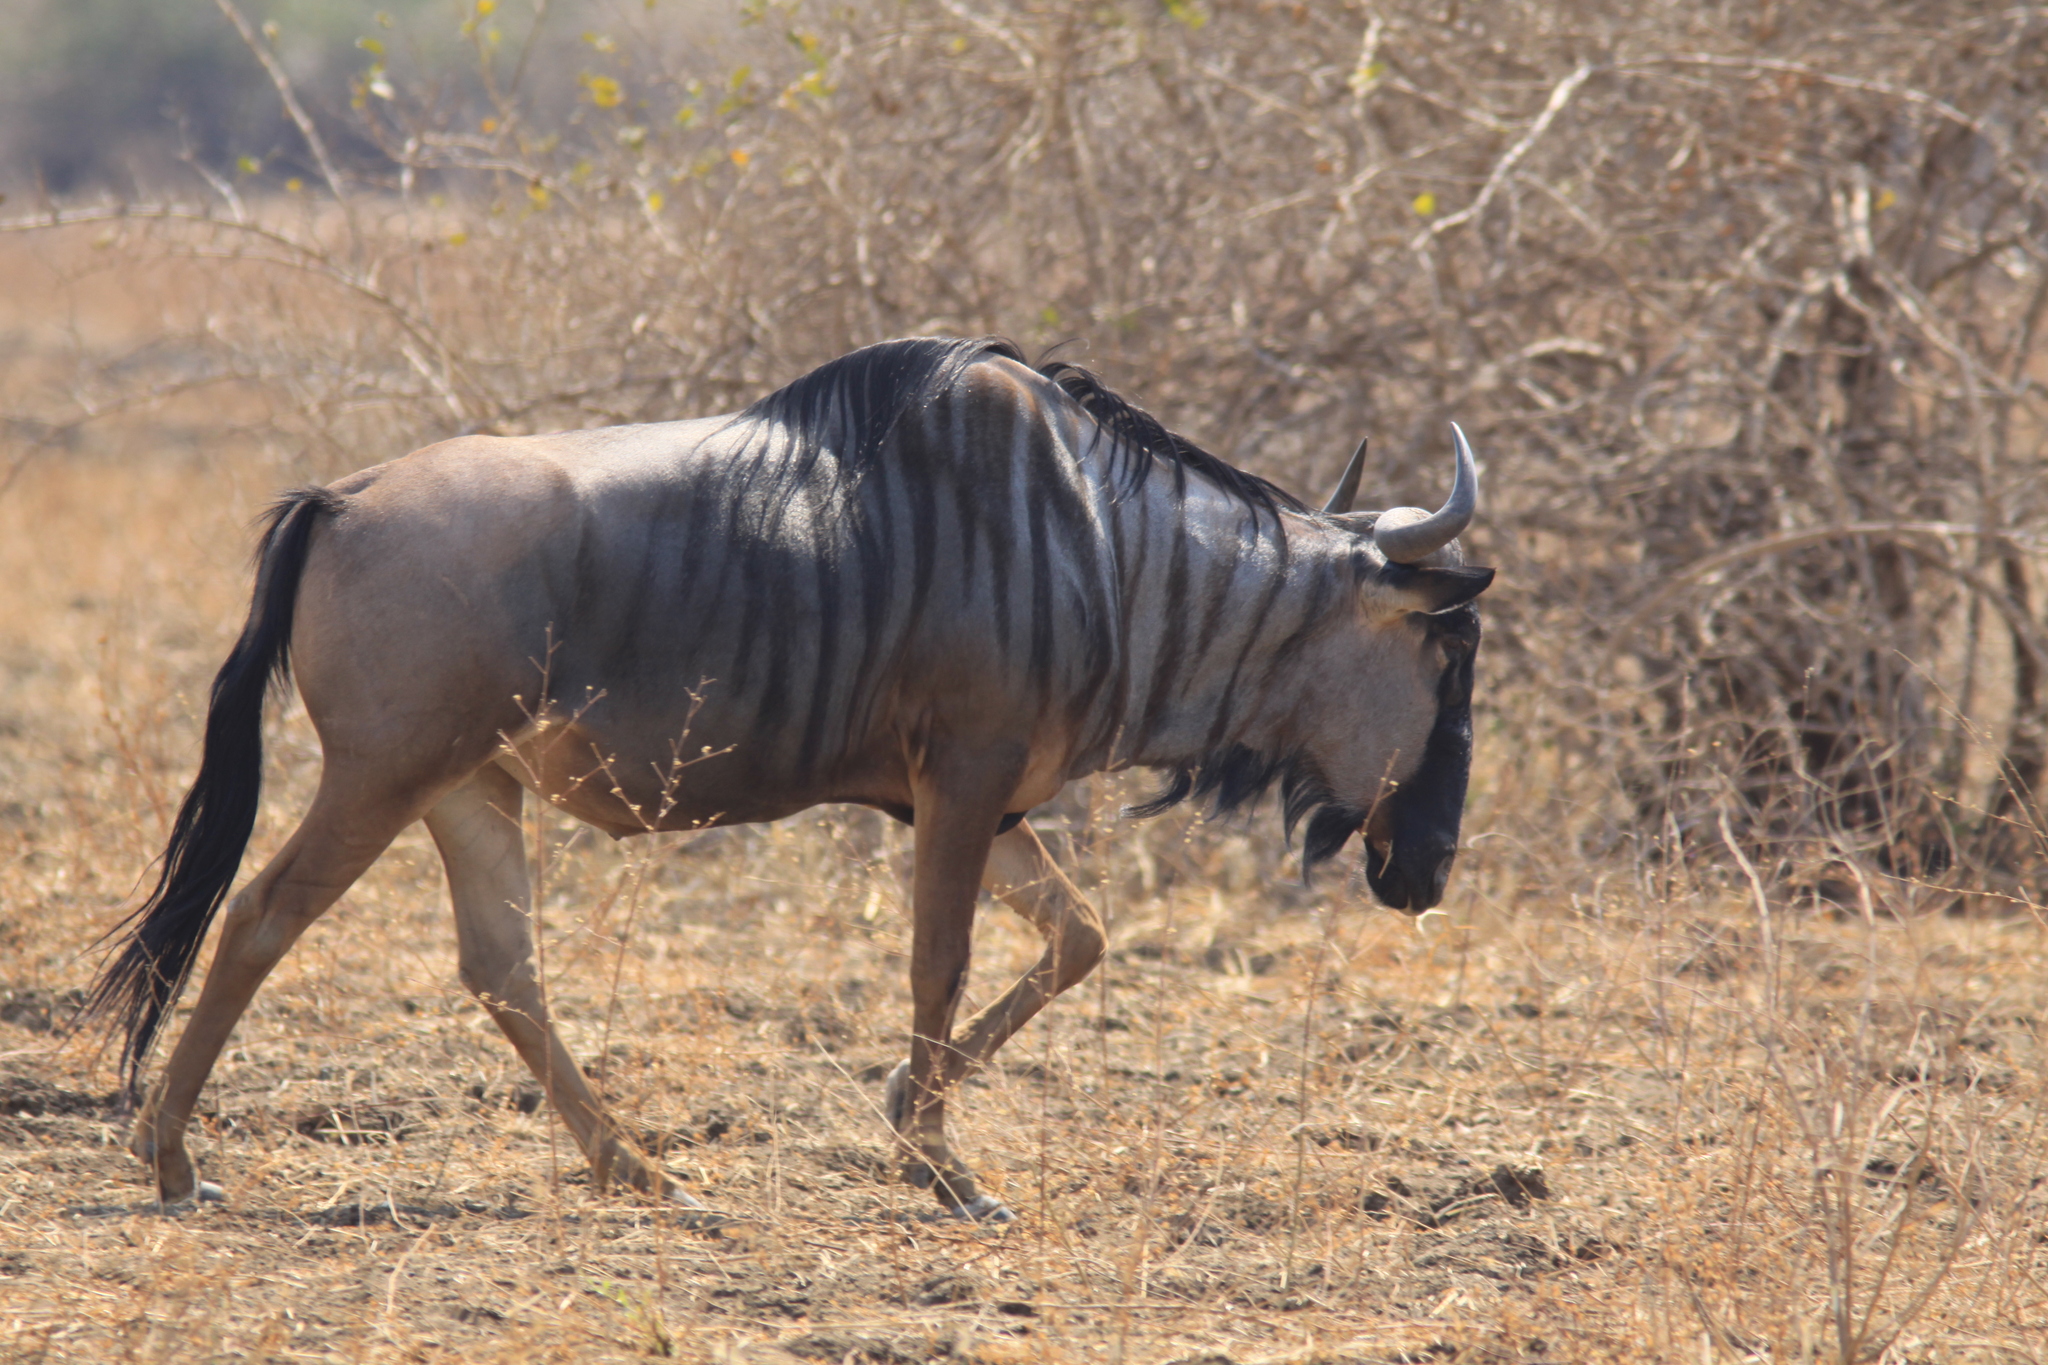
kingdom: Animalia
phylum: Chordata
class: Mammalia
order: Artiodactyla
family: Bovidae
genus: Connochaetes
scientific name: Connochaetes taurinus
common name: Blue wildebeest
